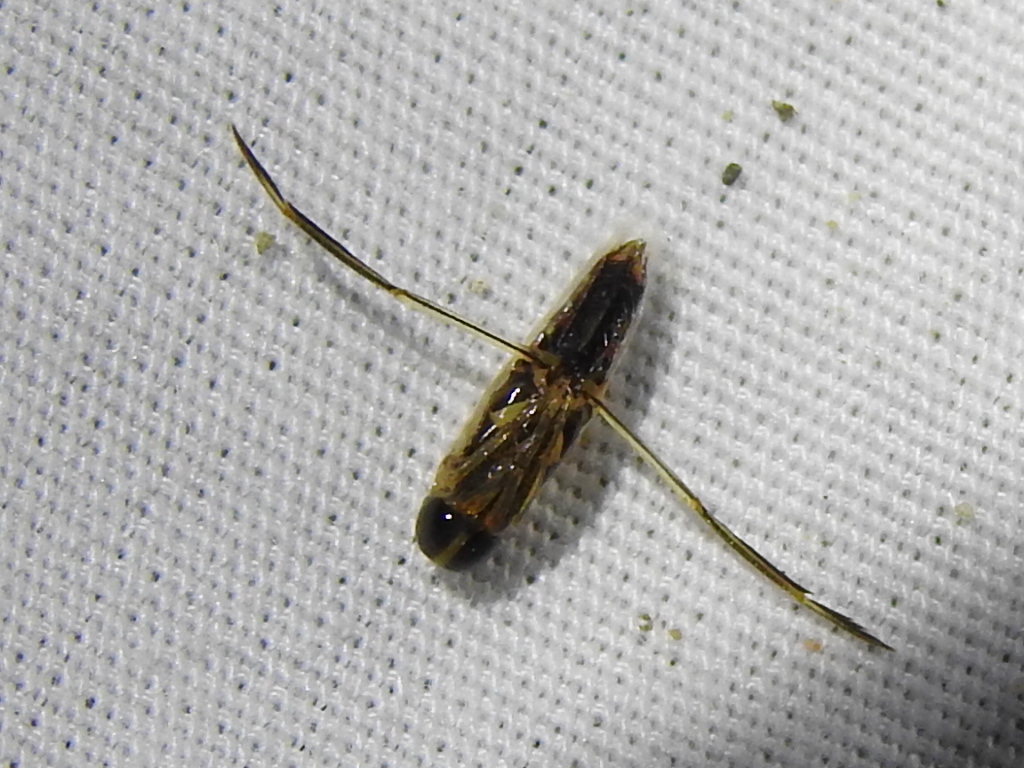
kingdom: Animalia
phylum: Arthropoda
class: Insecta
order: Hemiptera
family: Notonectidae
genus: Buenoa
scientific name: Buenoa
